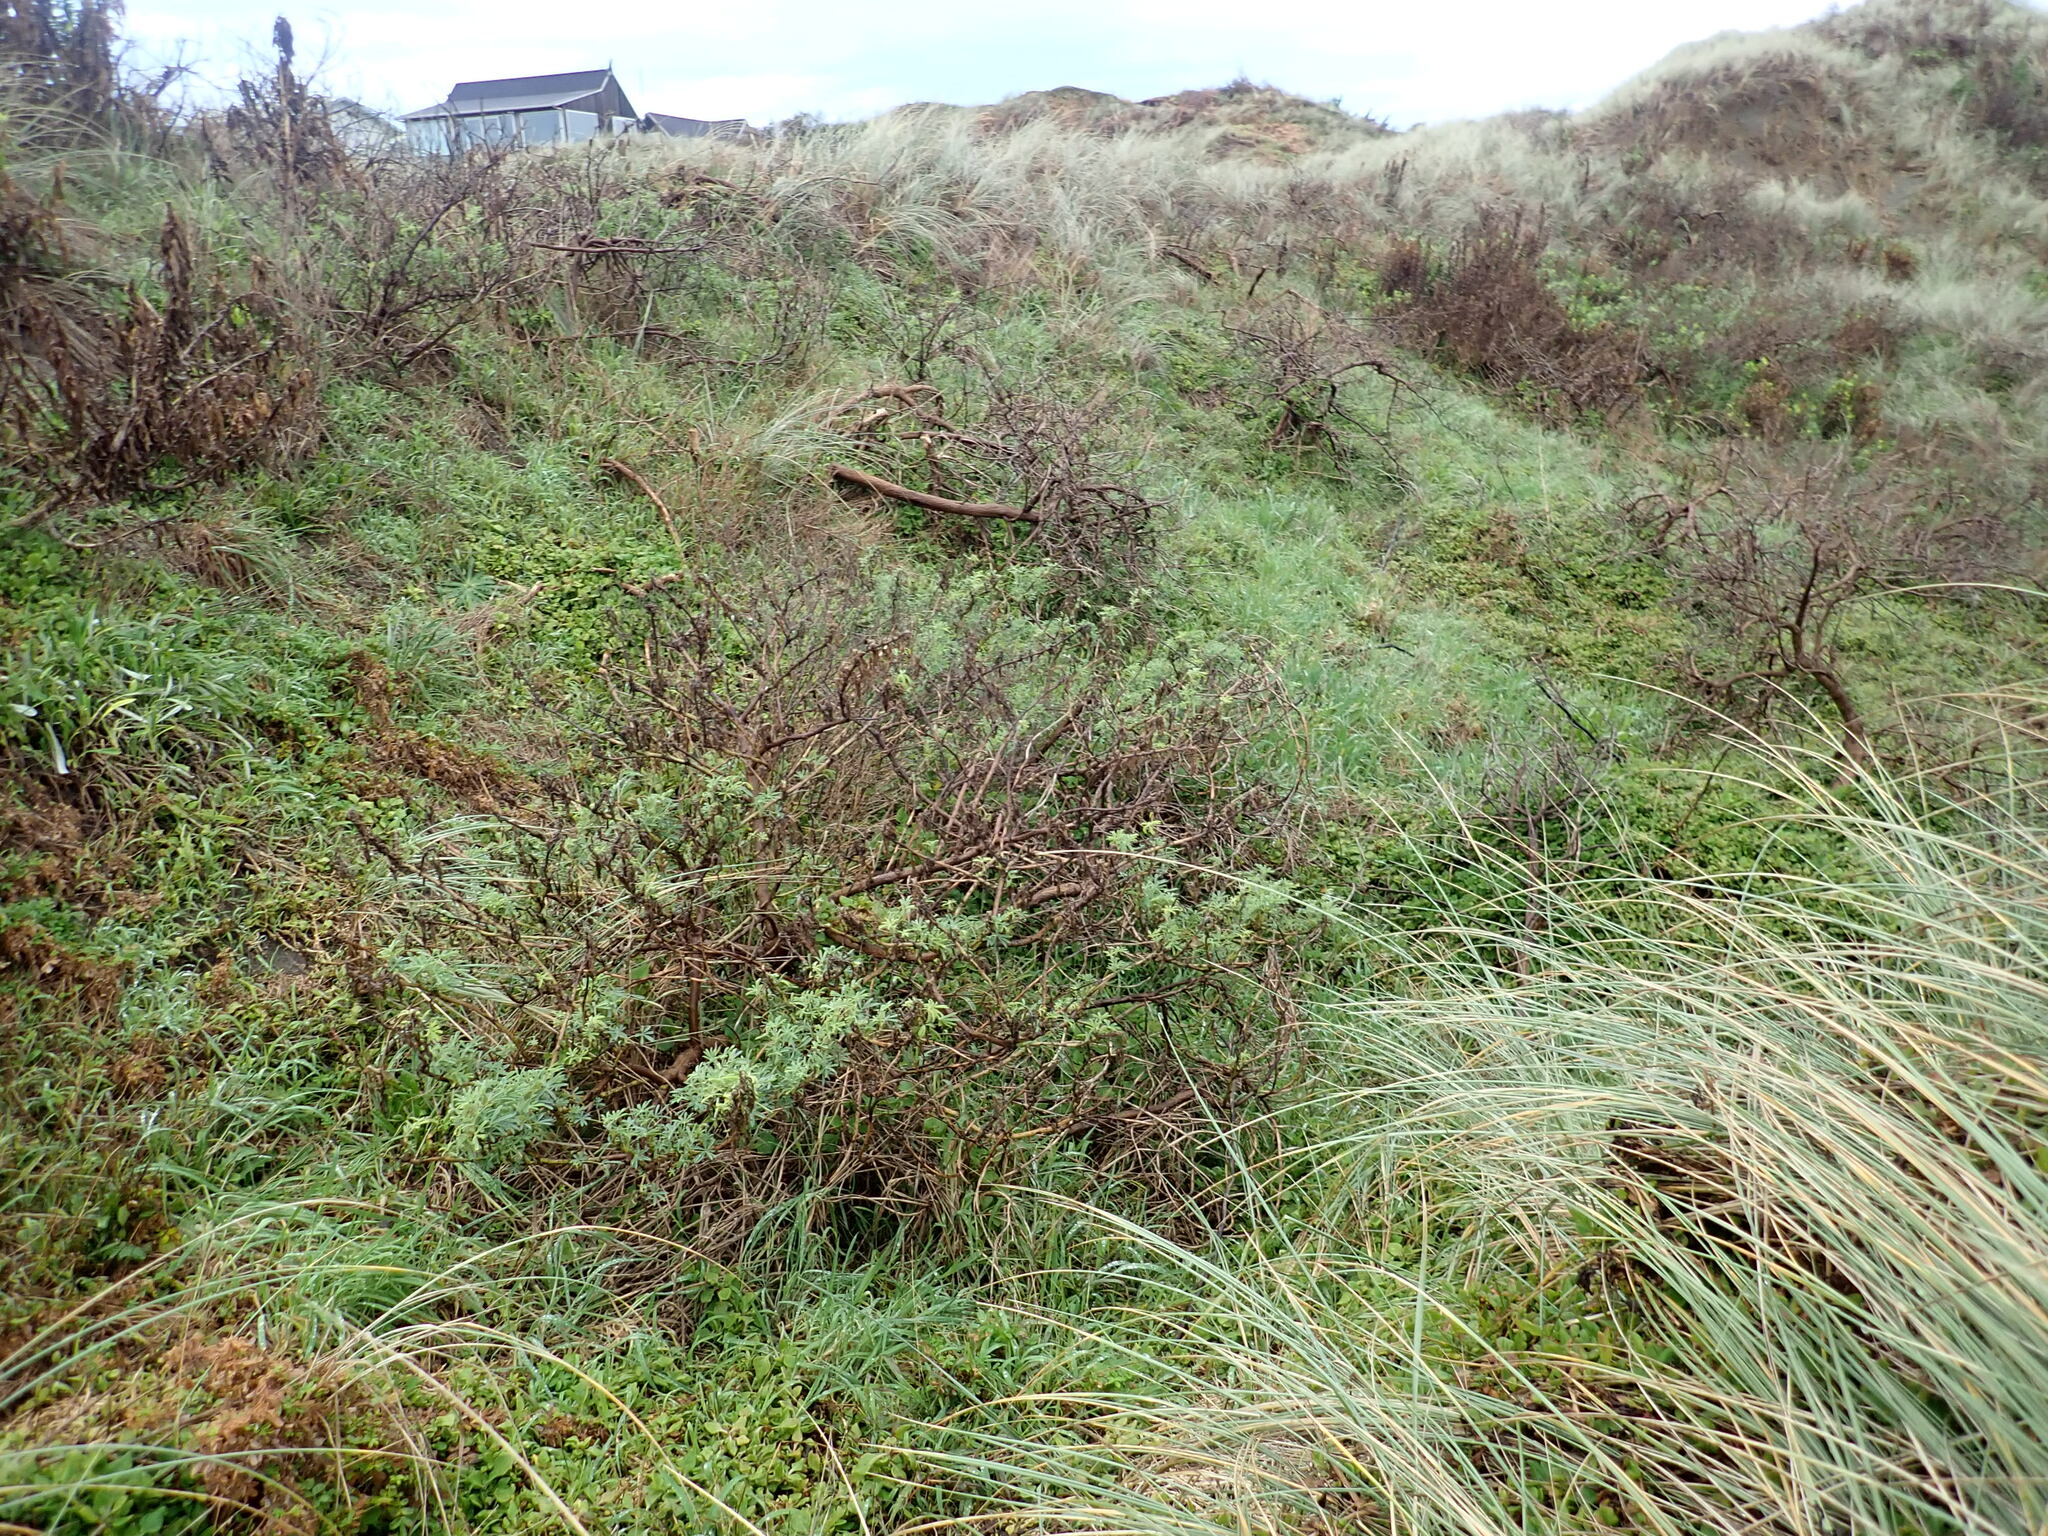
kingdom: Plantae
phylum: Tracheophyta
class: Magnoliopsida
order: Caryophyllales
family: Aizoaceae
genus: Tetragonia
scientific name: Tetragonia implexicoma
